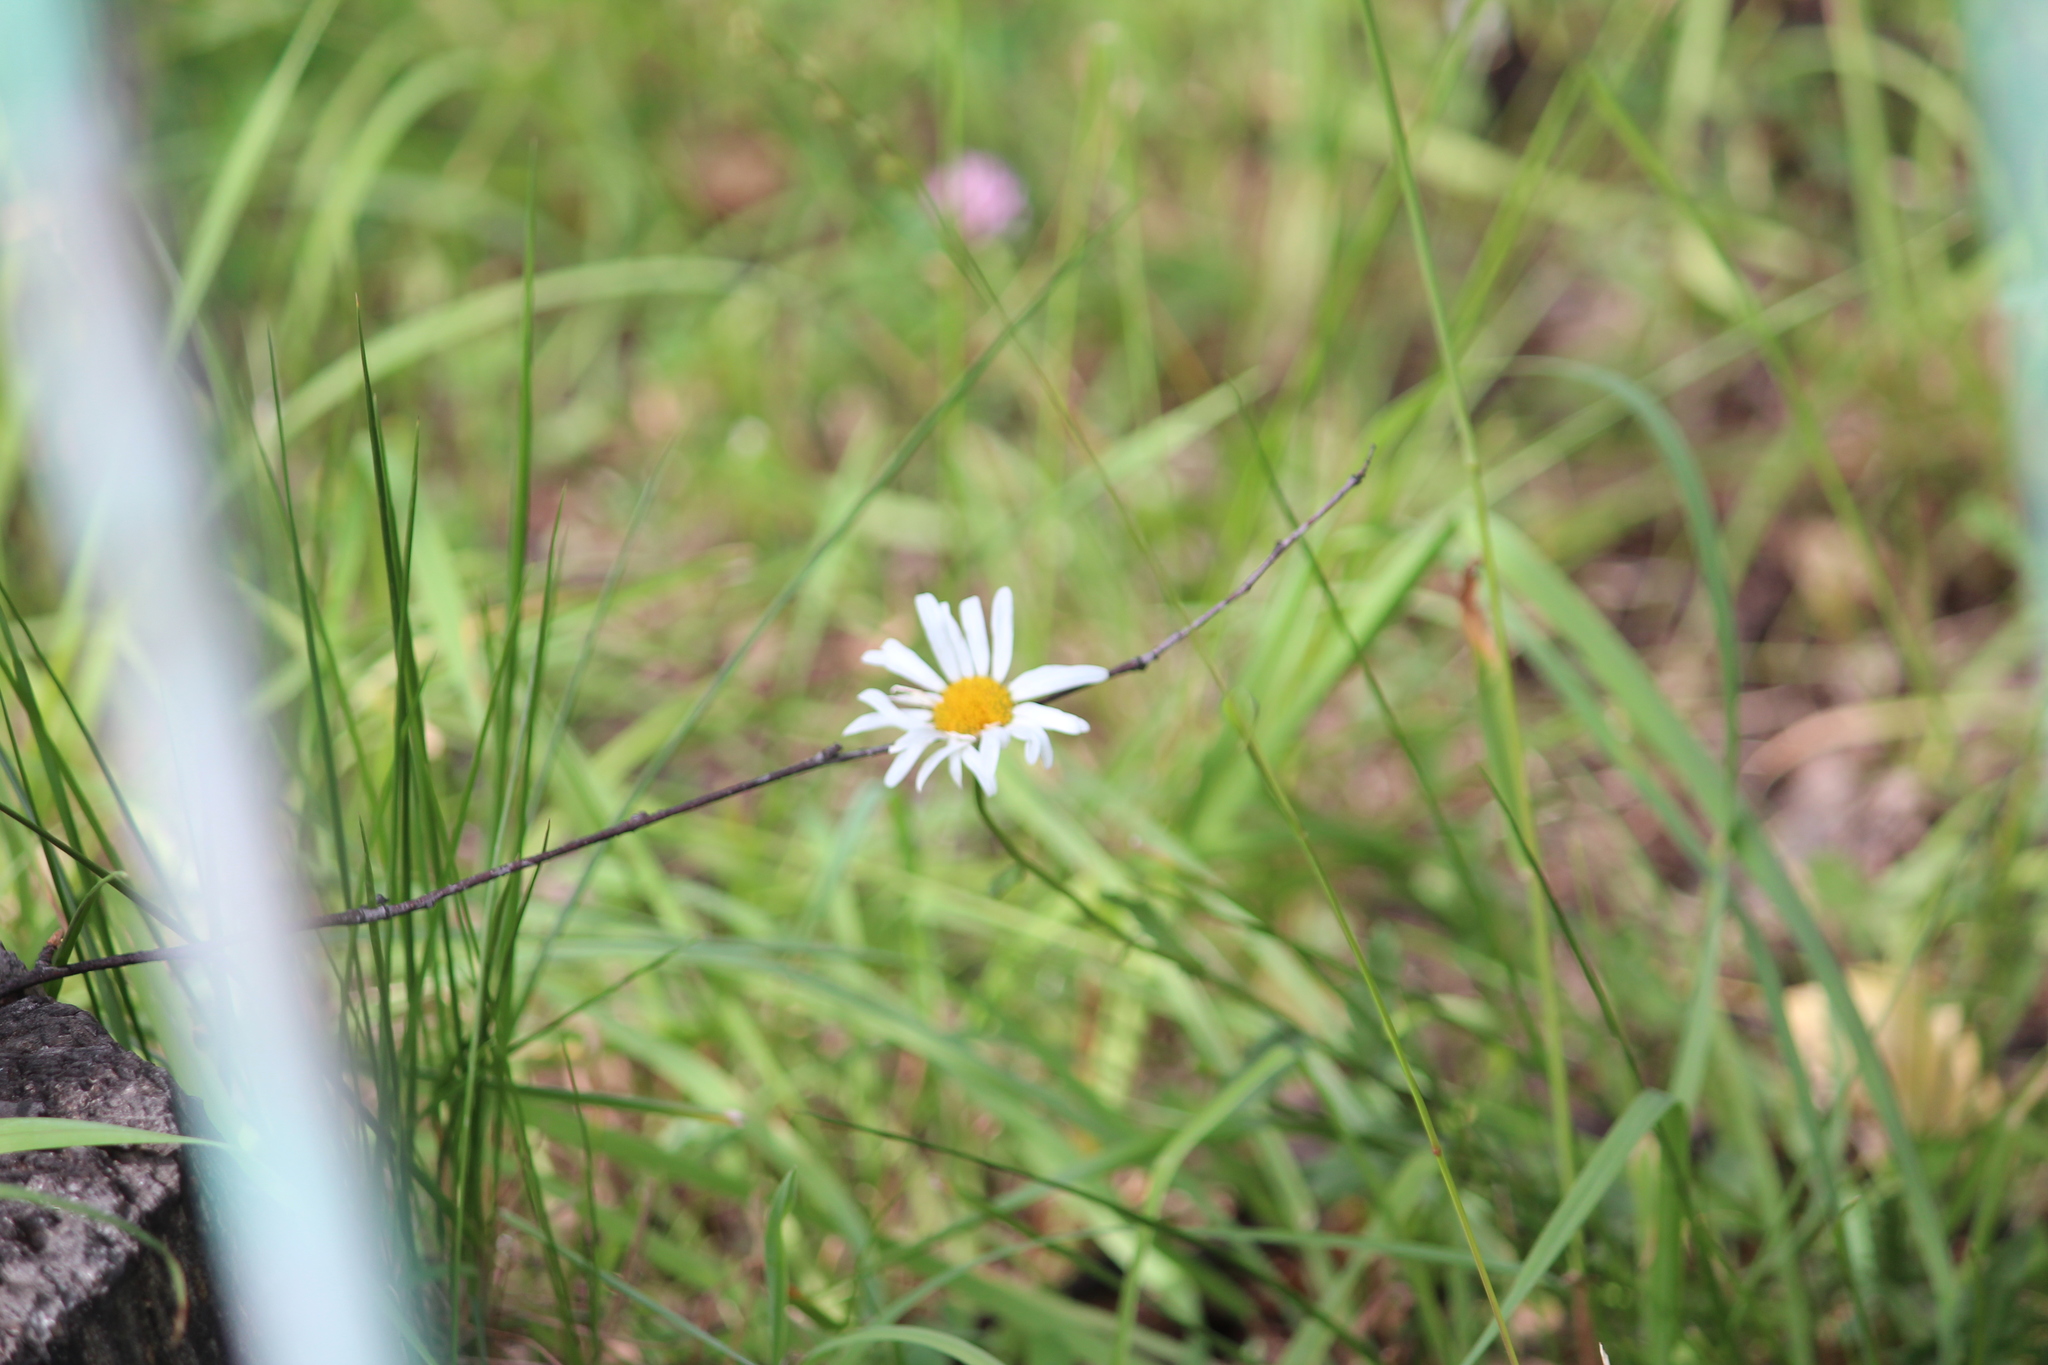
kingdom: Plantae
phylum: Tracheophyta
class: Magnoliopsida
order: Asterales
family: Asteraceae
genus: Leucanthemum
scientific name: Leucanthemum vulgare
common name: Oxeye daisy
